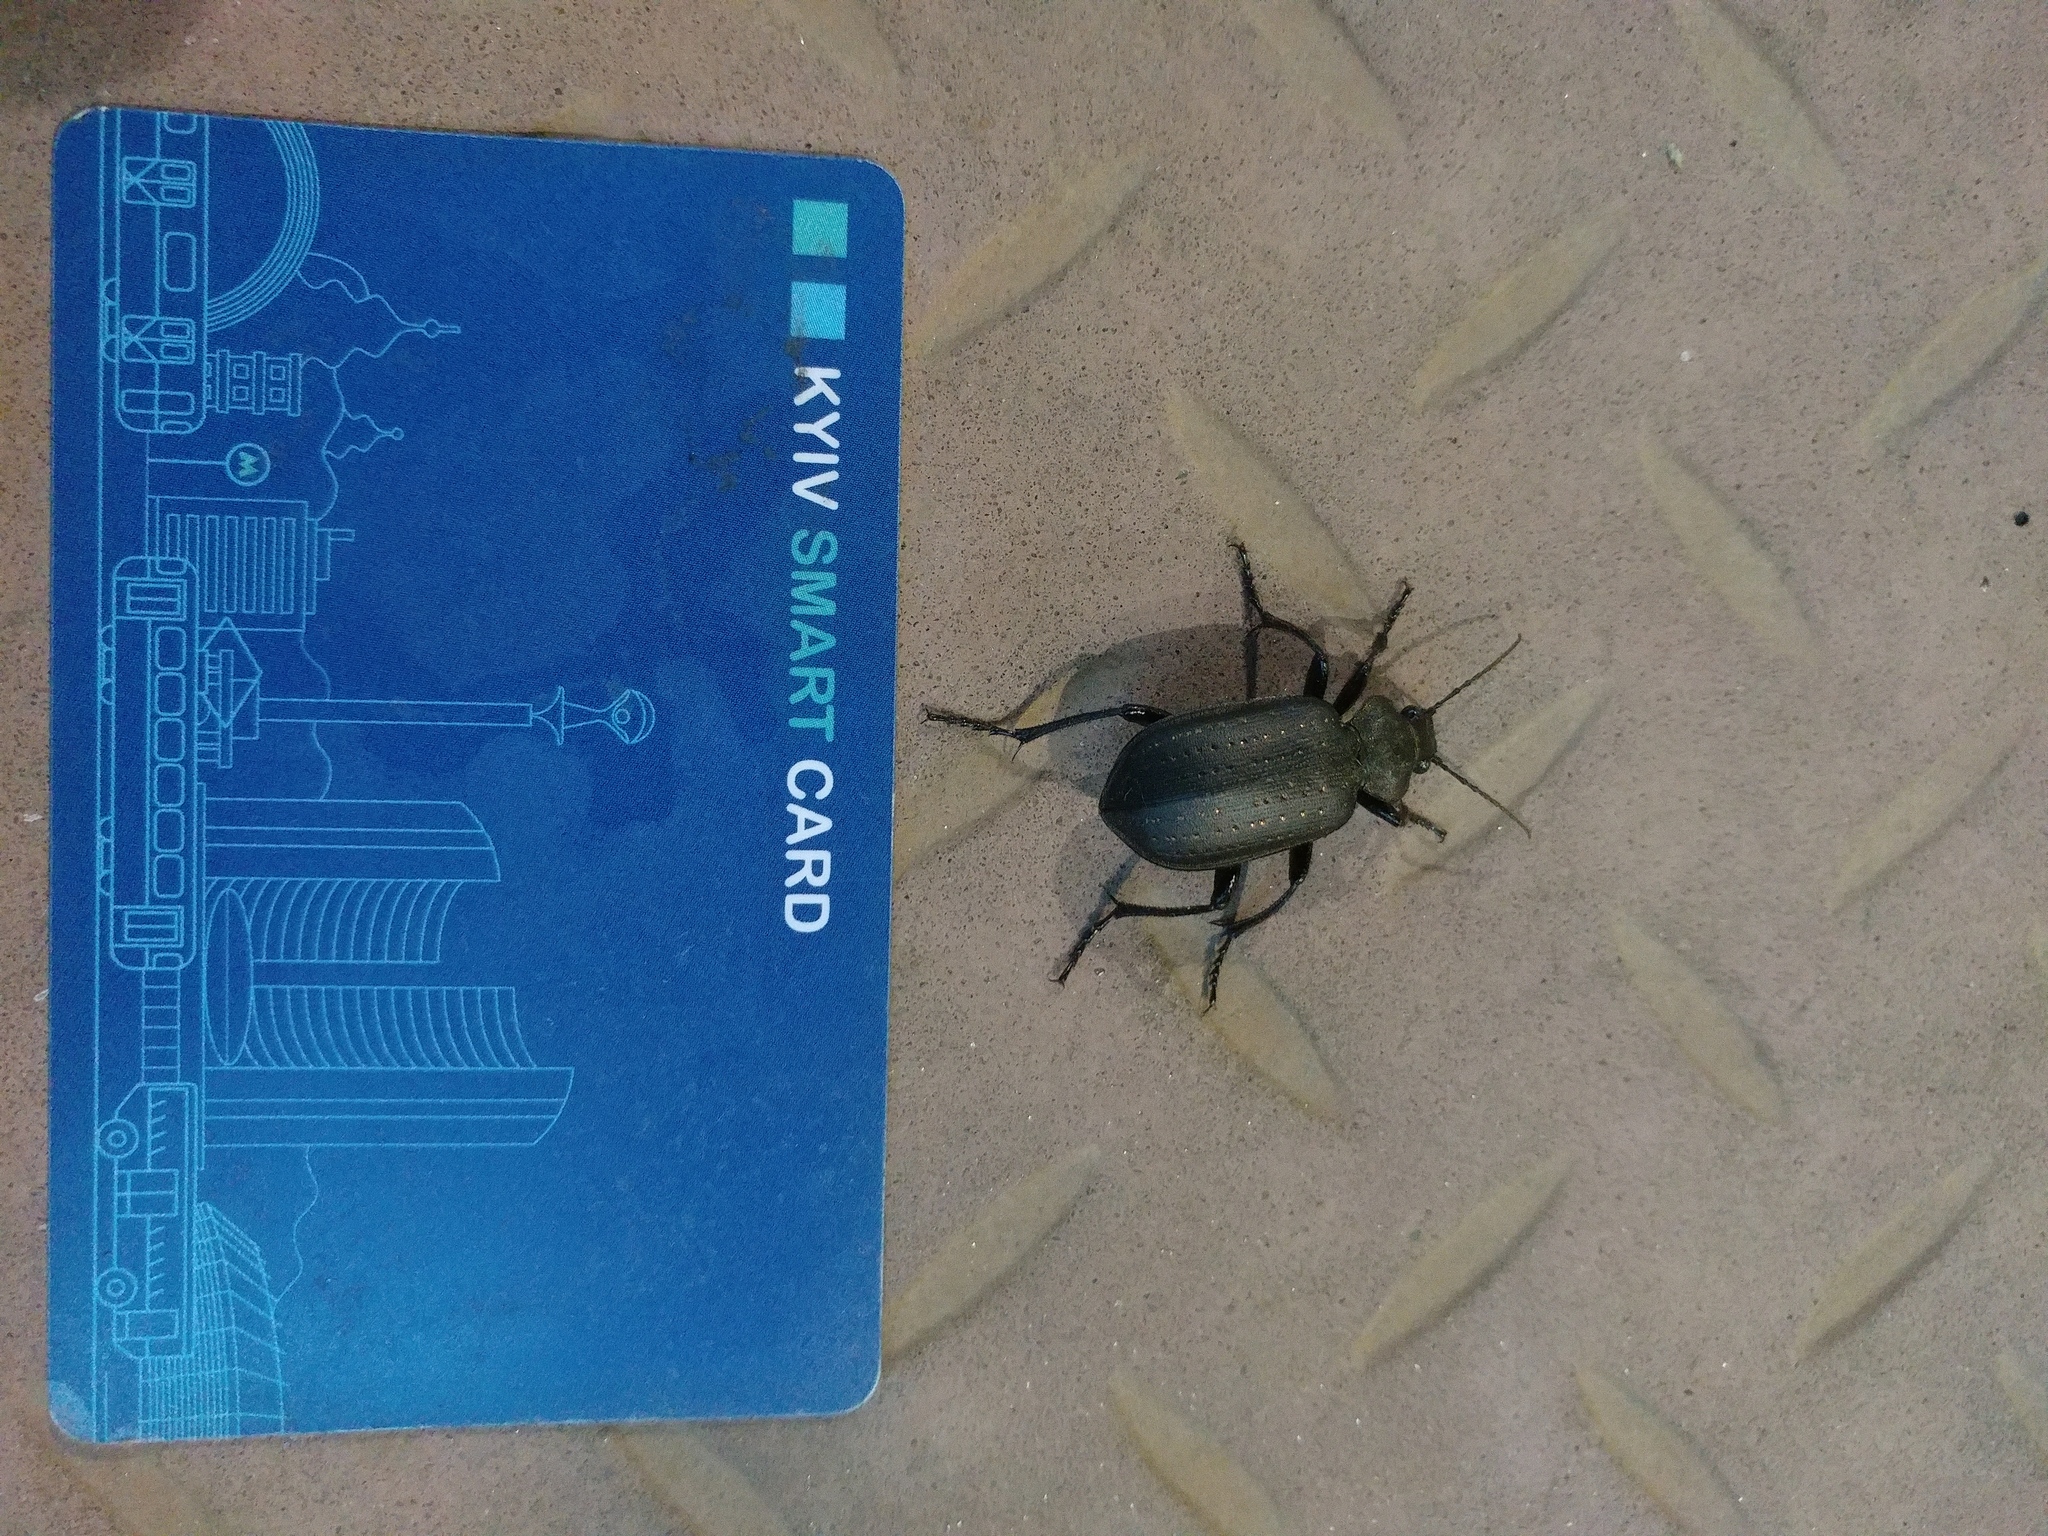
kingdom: Animalia
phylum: Arthropoda
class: Insecta
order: Coleoptera
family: Carabidae
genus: Calosoma
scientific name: Calosoma maderae
